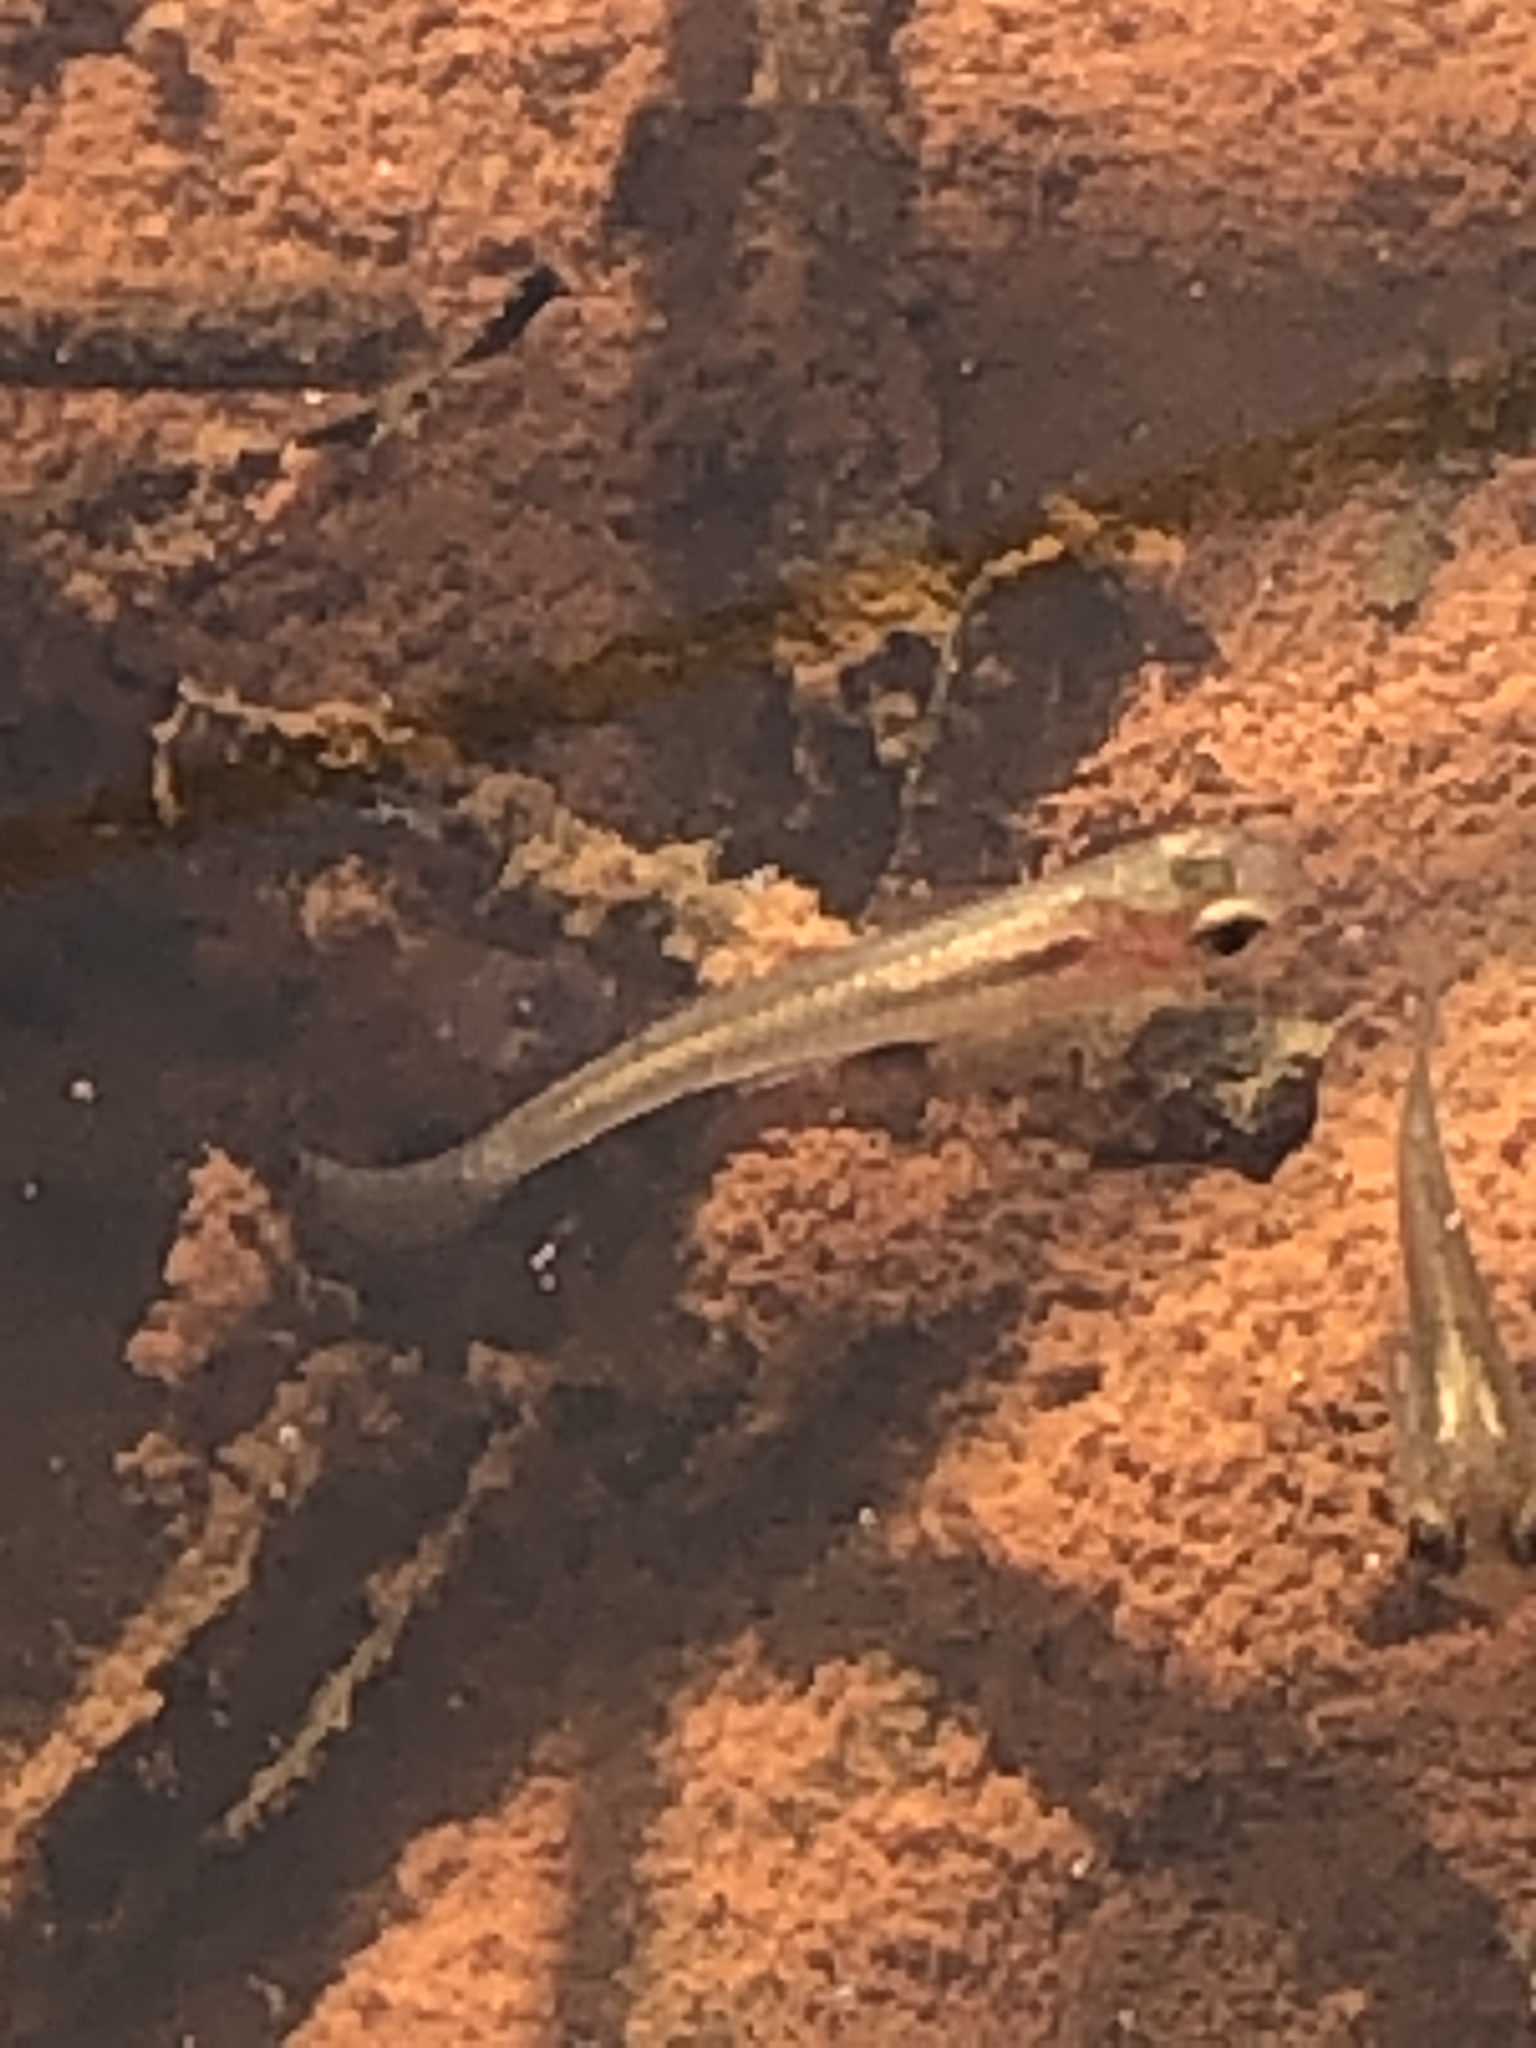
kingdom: Animalia
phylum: Chordata
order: Cyprinodontiformes
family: Poeciliidae
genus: Gambusia
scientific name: Gambusia holbrooki
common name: Eastern mosquitofish
